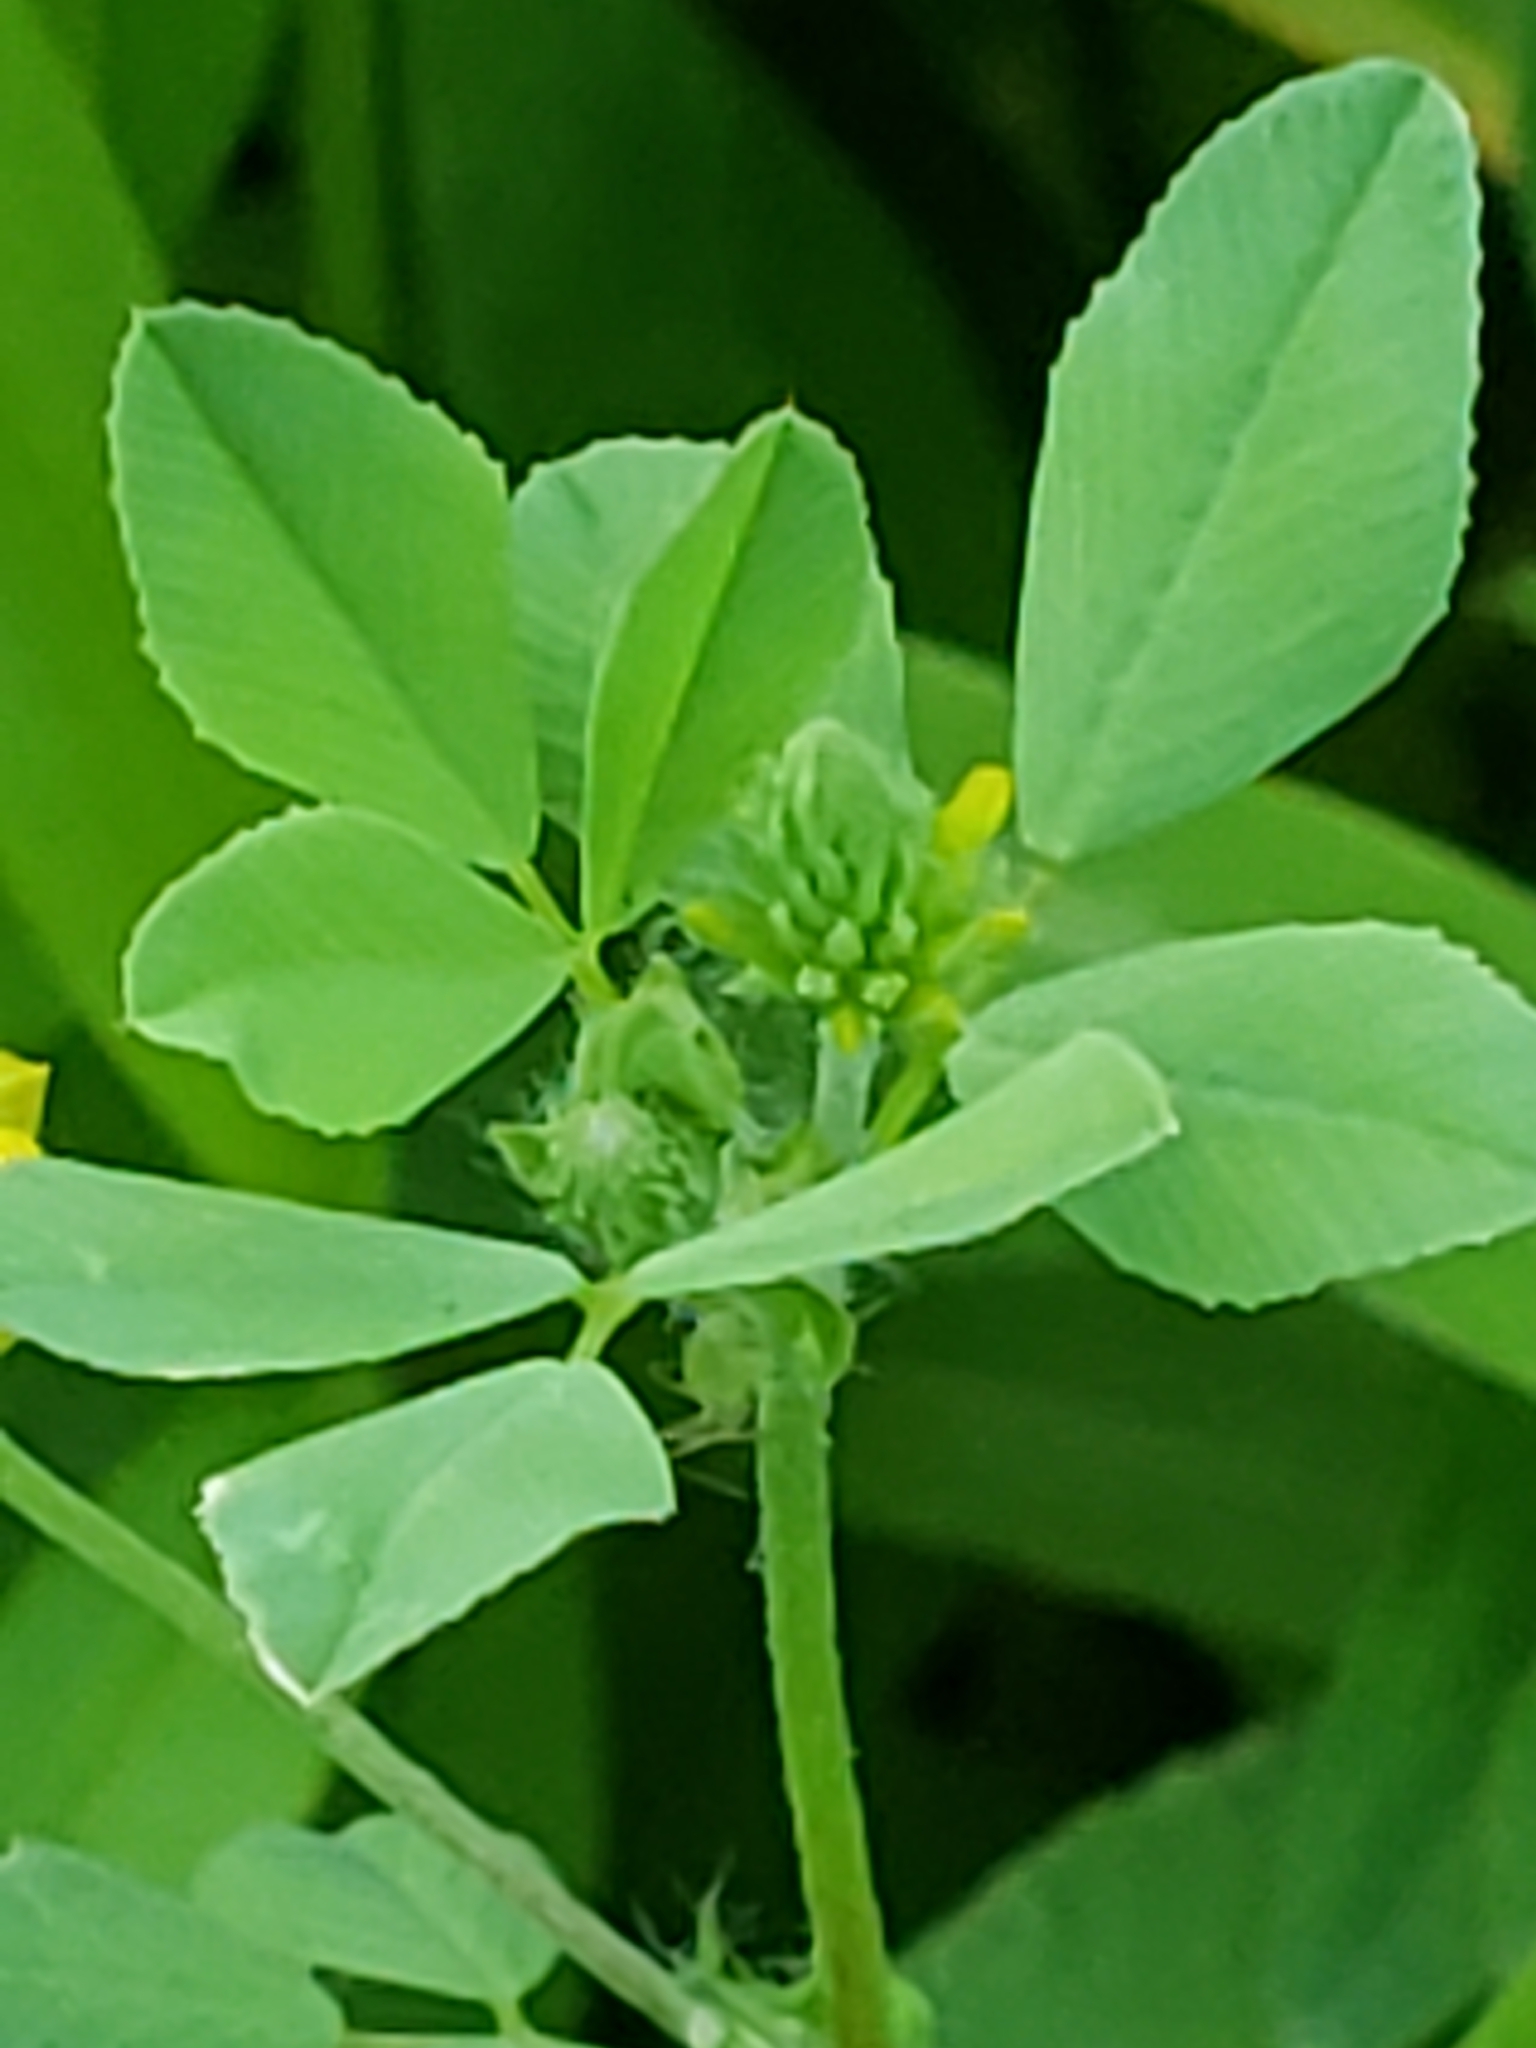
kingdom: Plantae
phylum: Tracheophyta
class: Magnoliopsida
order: Fabales
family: Fabaceae
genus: Trifolium
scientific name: Trifolium campestre
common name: Field clover
